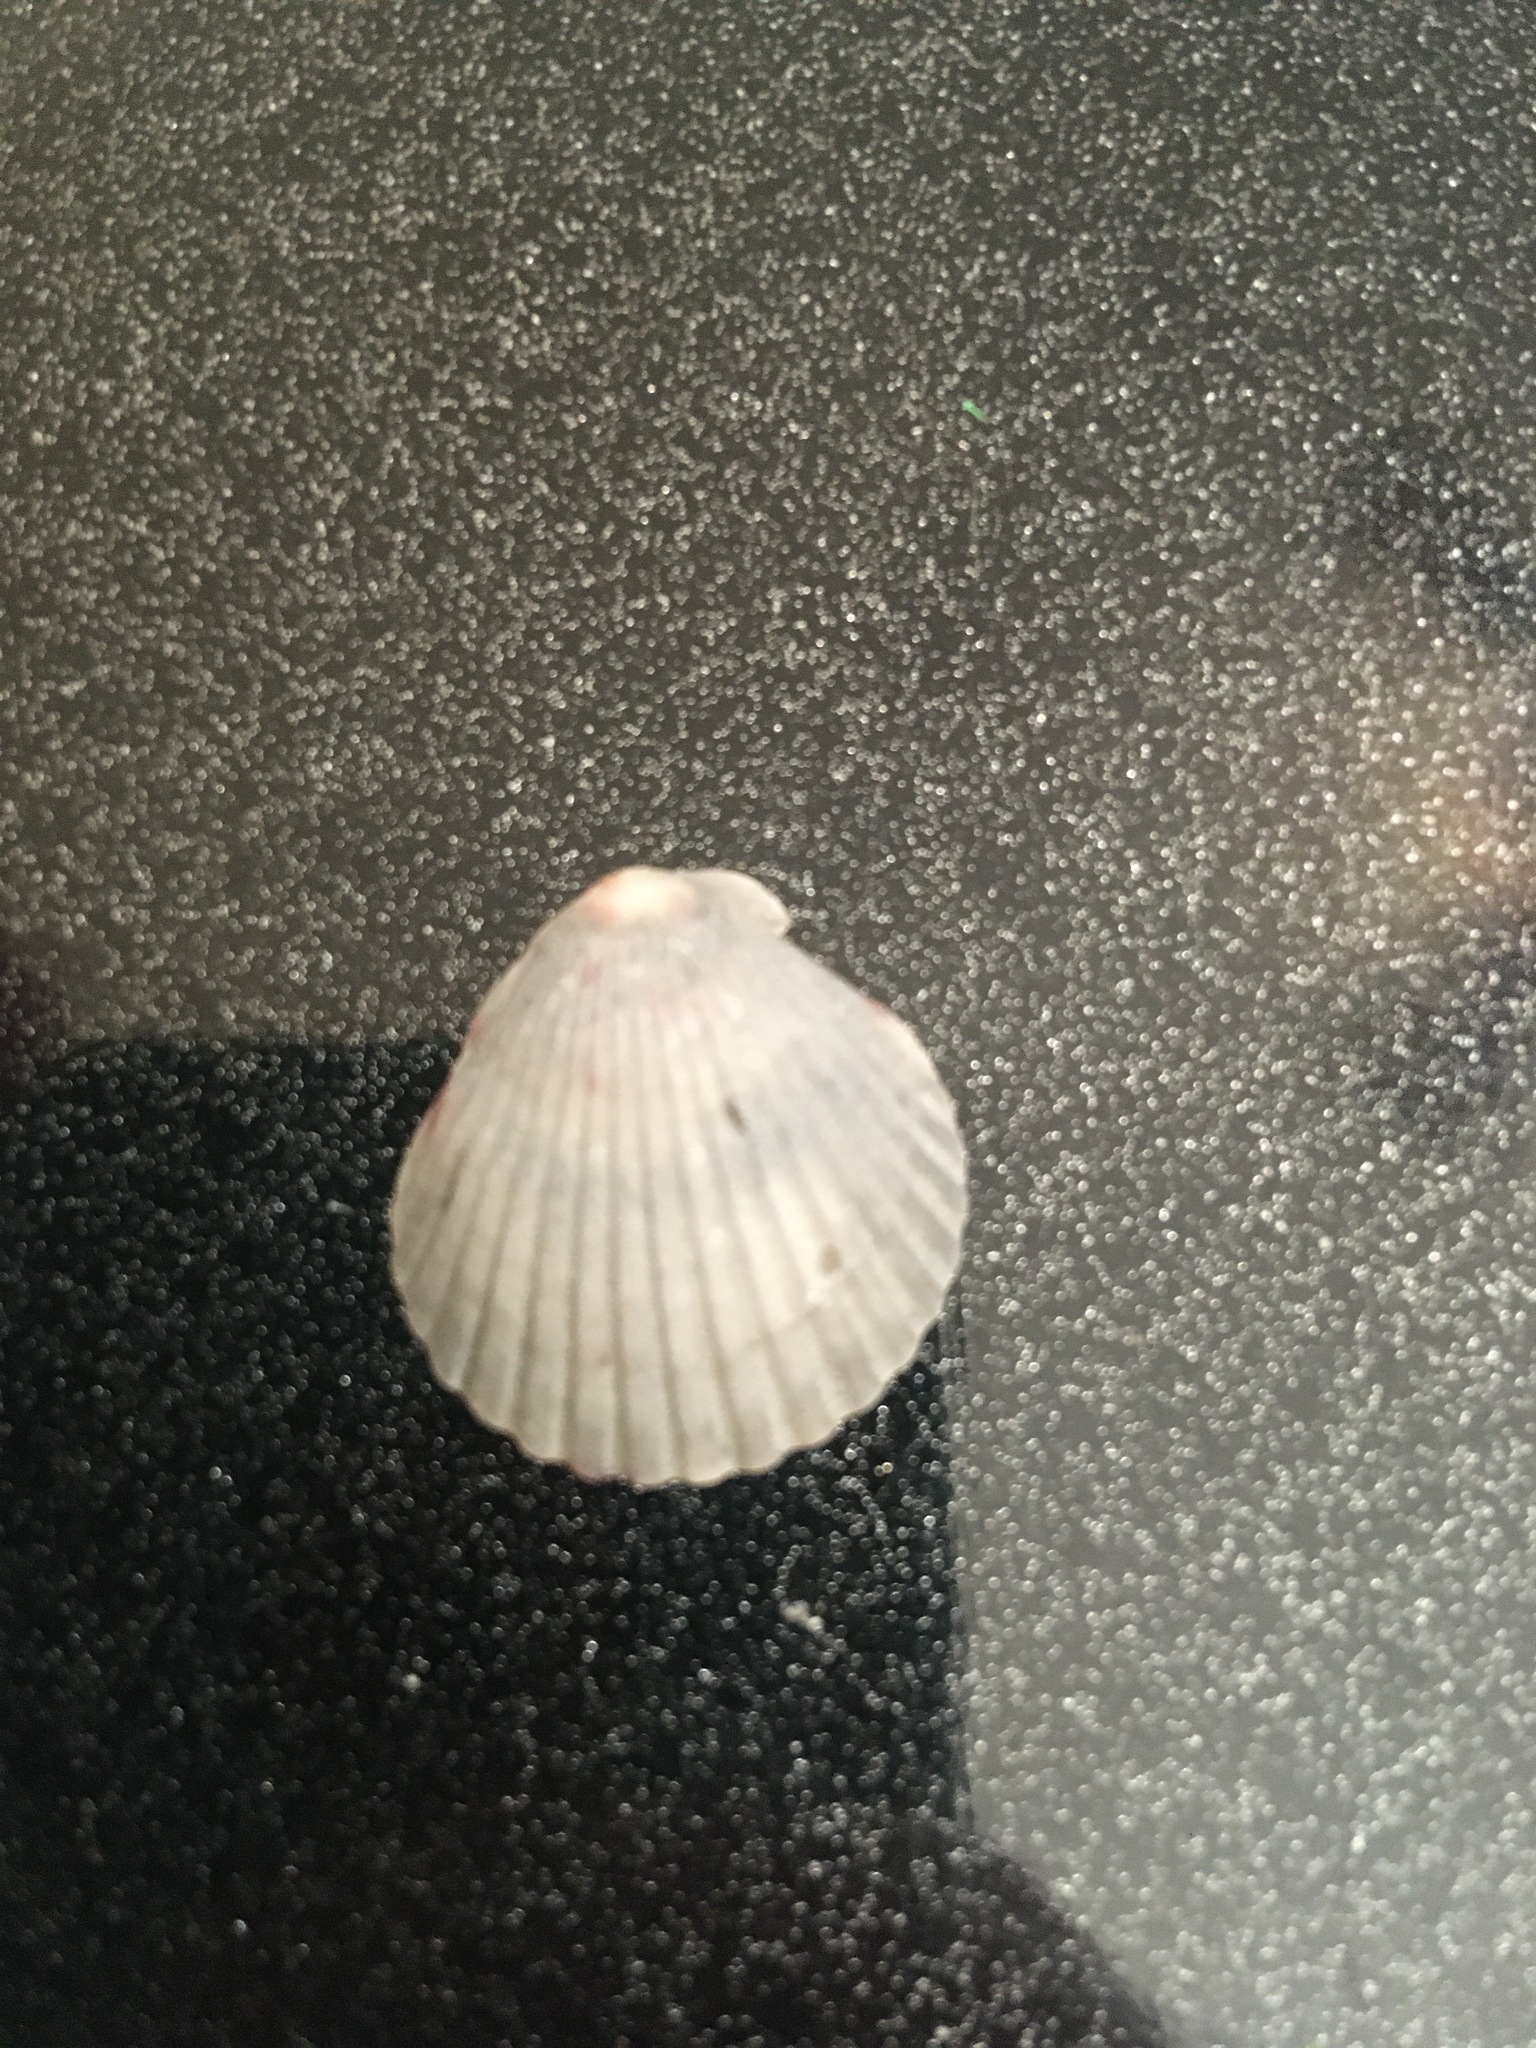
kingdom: Animalia
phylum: Mollusca
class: Bivalvia
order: Pectinida
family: Pectinidae
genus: Argopecten
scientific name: Argopecten gibbus
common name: Atlantic calico scallop
